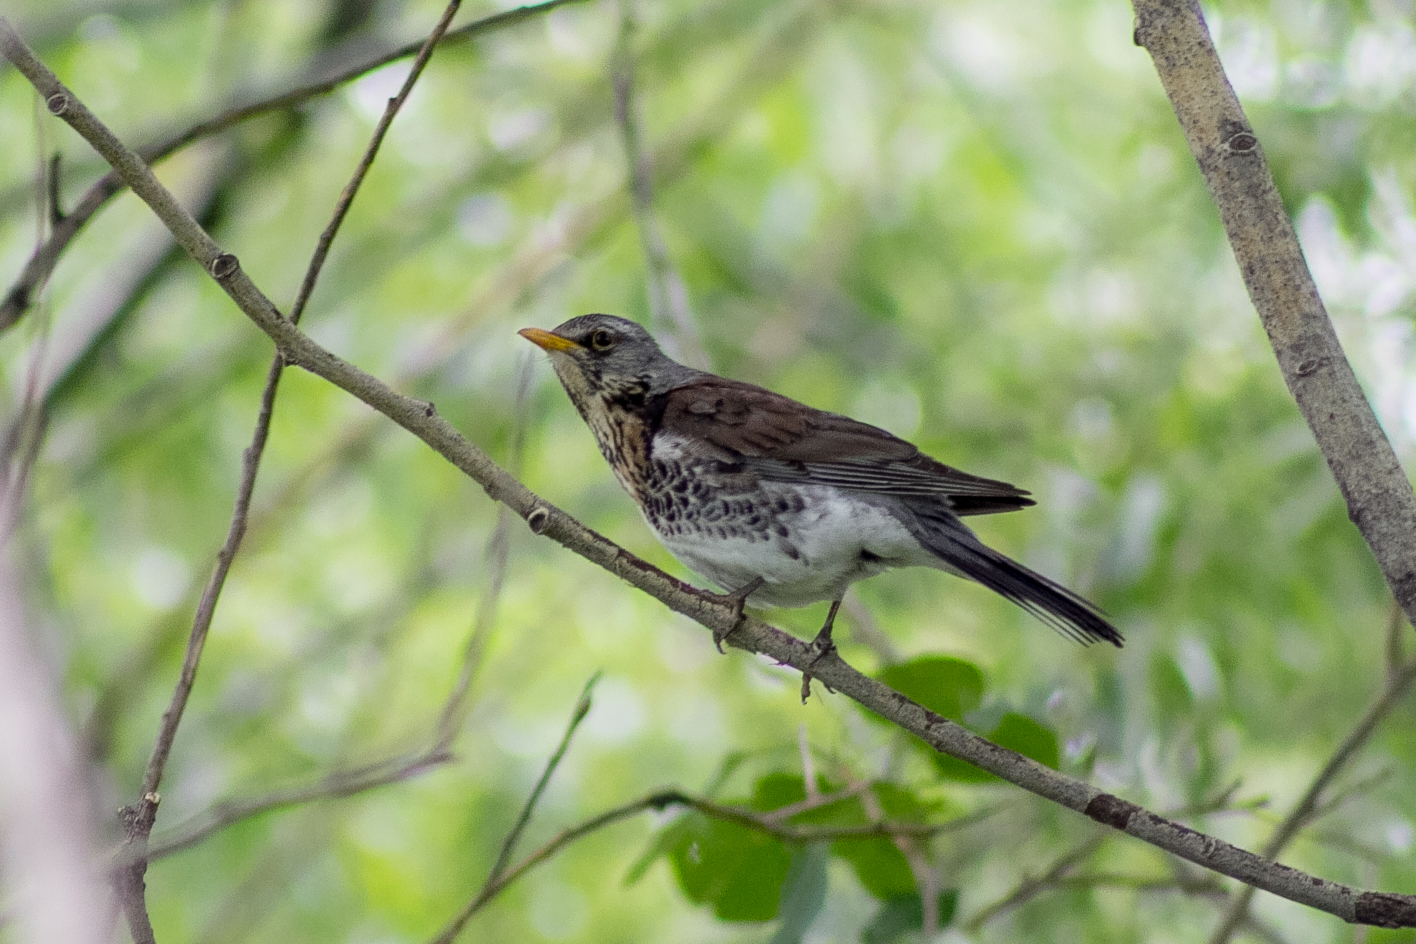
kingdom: Animalia
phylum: Chordata
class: Aves
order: Passeriformes
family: Turdidae
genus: Turdus
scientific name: Turdus pilaris
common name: Fieldfare
